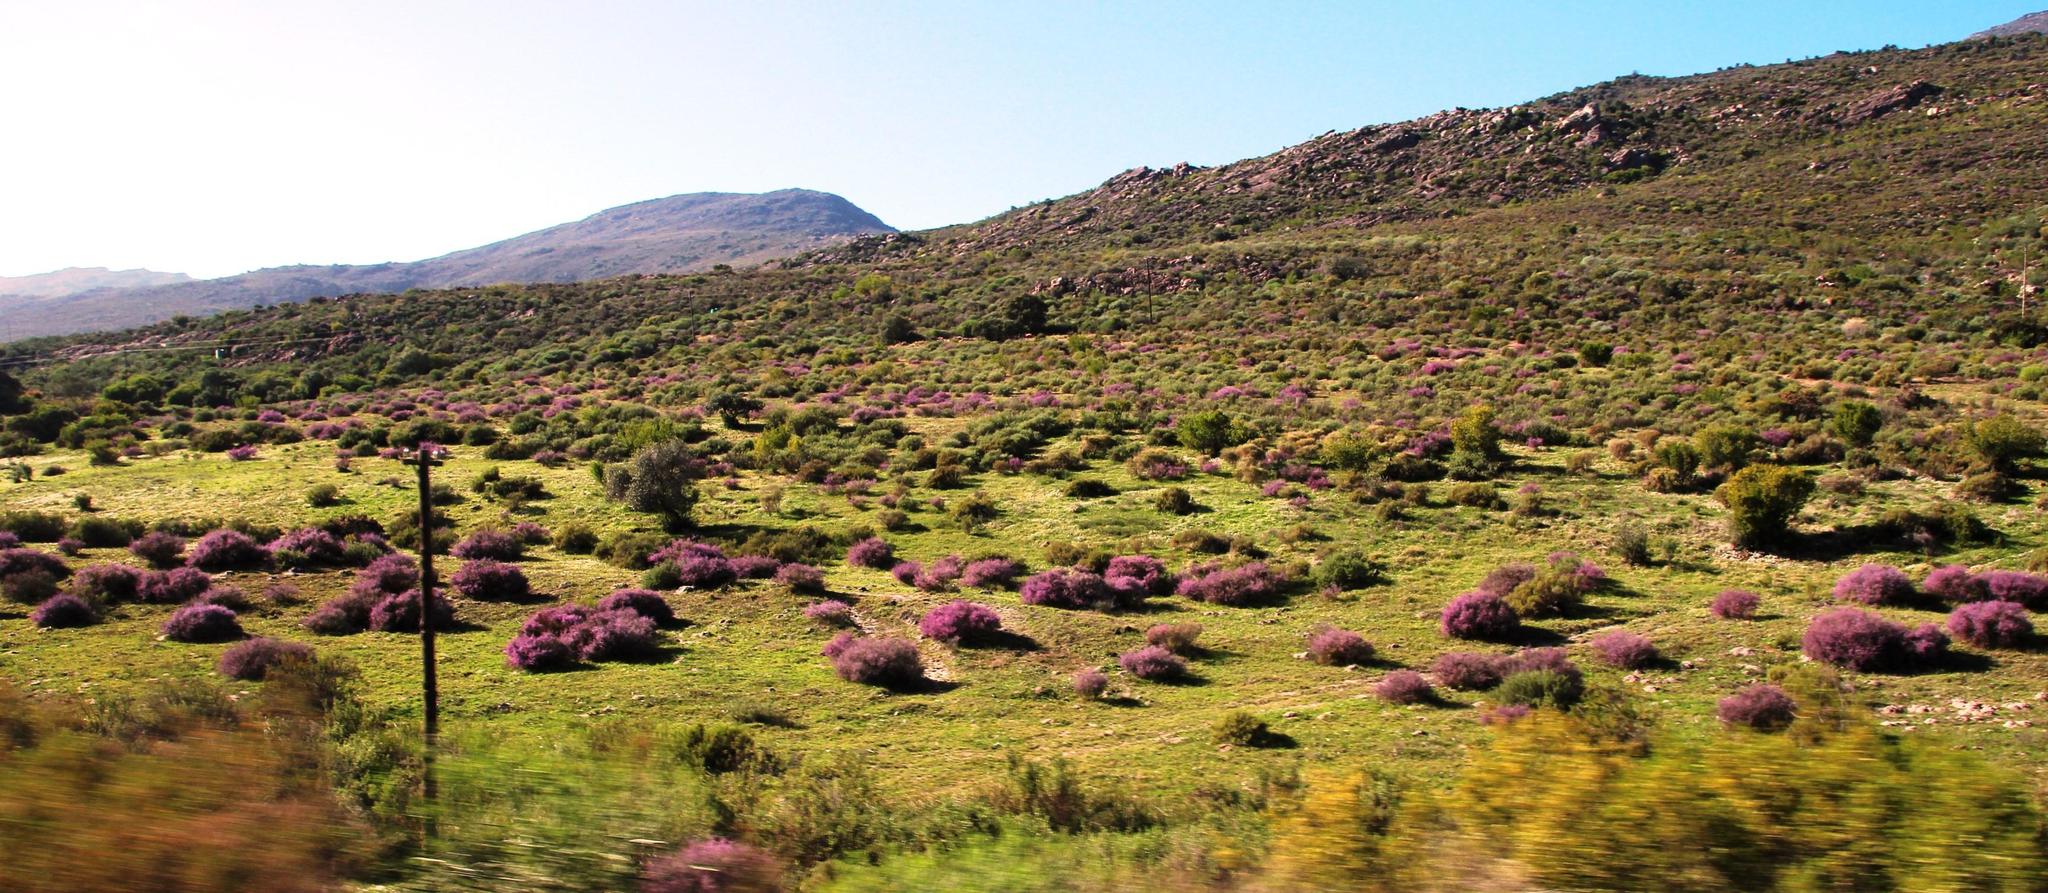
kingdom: Plantae
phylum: Tracheophyta
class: Magnoliopsida
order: Fabales
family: Polygalaceae
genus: Muraltia
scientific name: Muraltia spinosa
